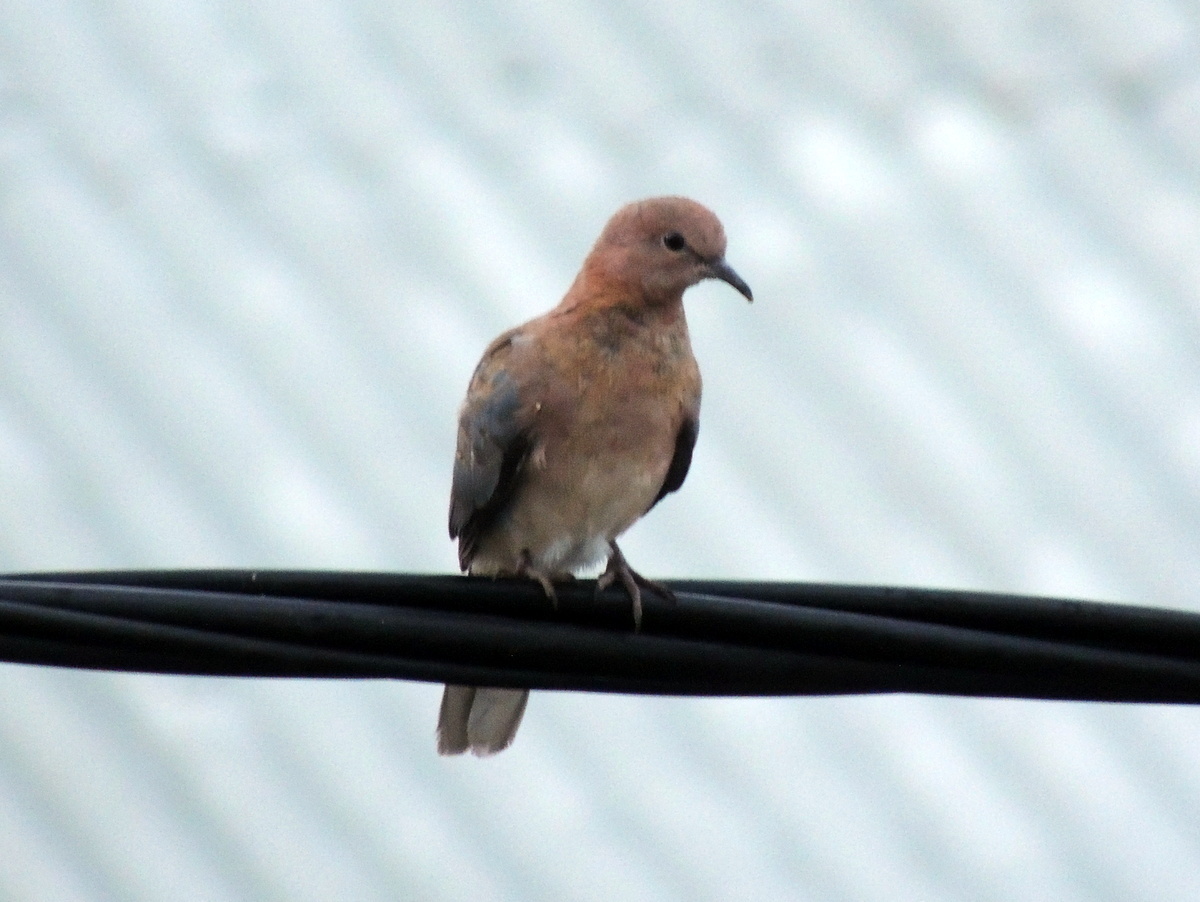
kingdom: Animalia
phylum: Chordata
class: Aves
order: Columbiformes
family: Columbidae
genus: Spilopelia
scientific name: Spilopelia senegalensis
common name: Laughing dove
